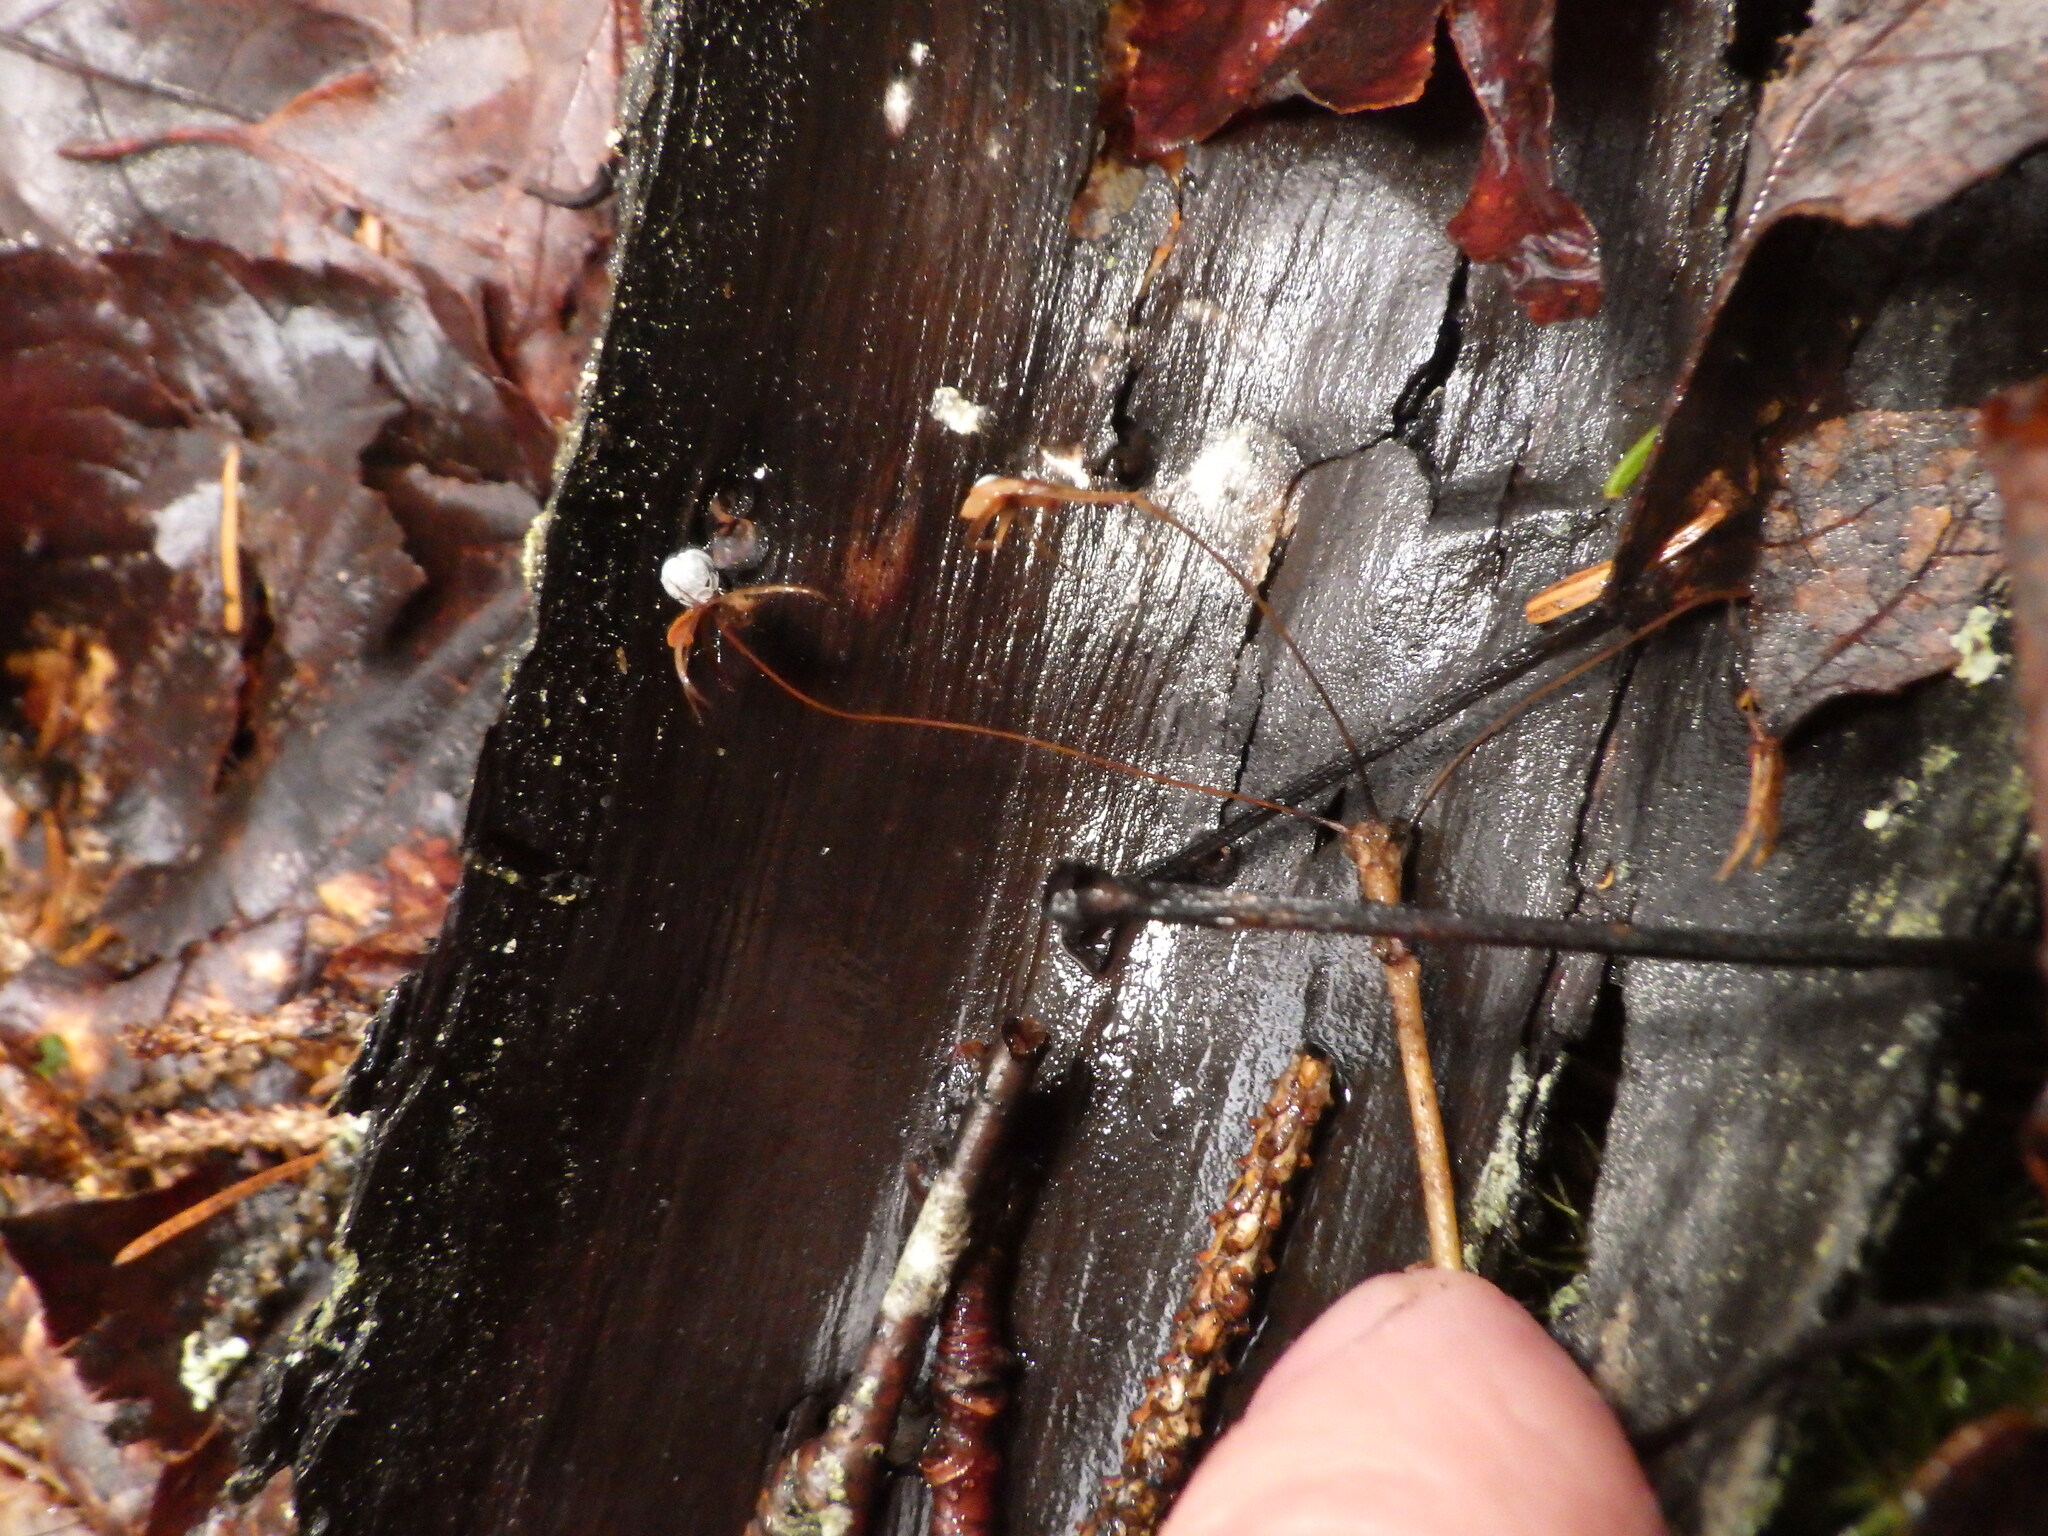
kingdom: Plantae
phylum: Tracheophyta
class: Magnoliopsida
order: Ericales
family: Primulaceae
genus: Lysimachia
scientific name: Lysimachia borealis
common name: American starflower
